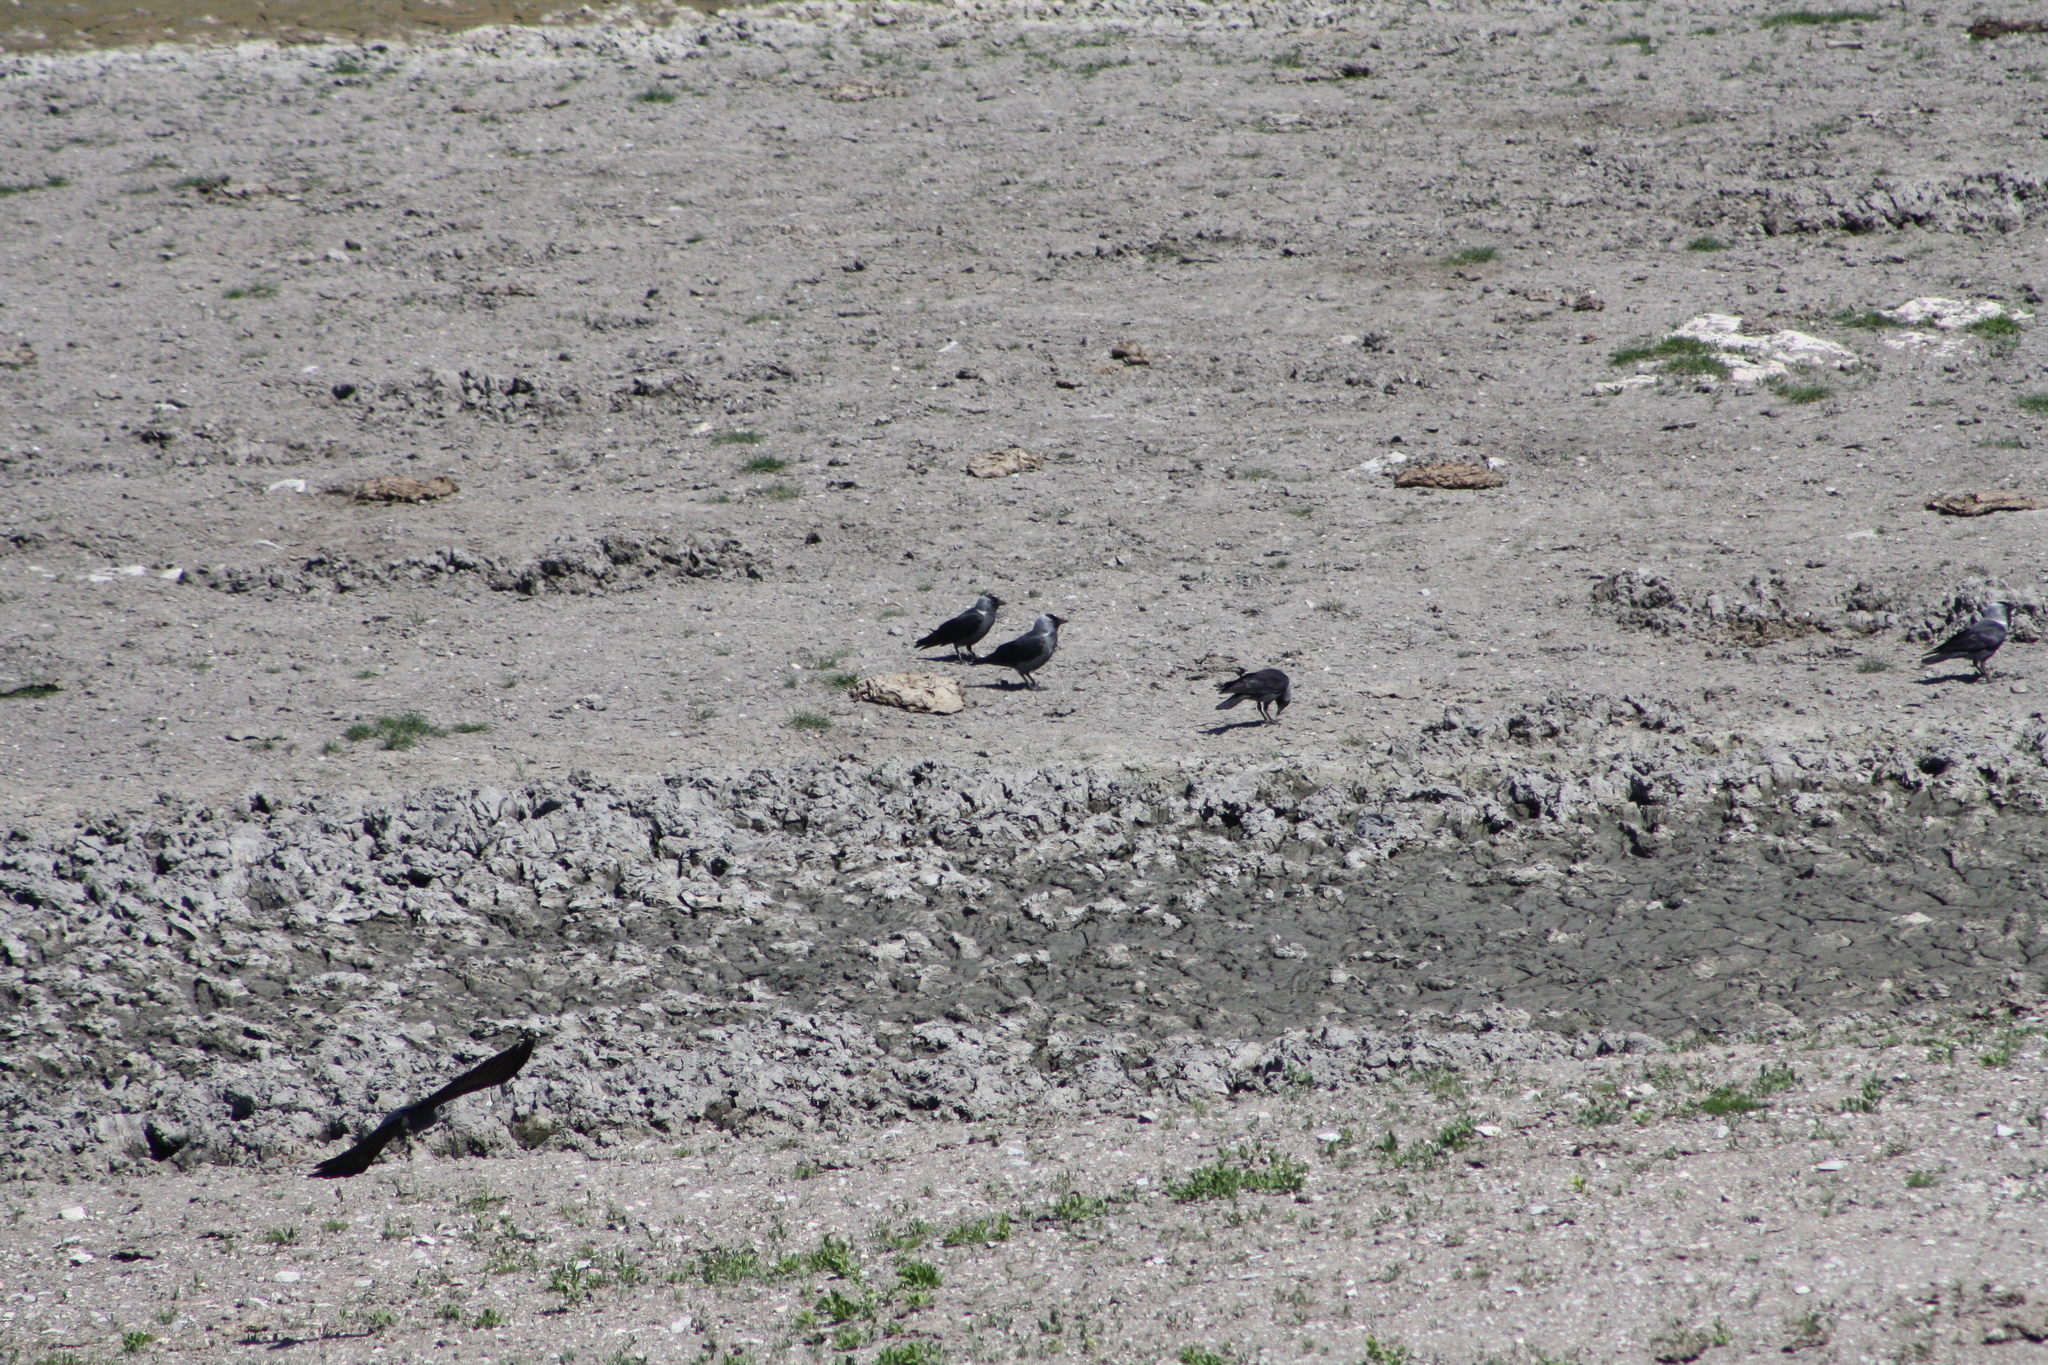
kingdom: Animalia
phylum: Chordata
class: Aves
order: Passeriformes
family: Corvidae
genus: Coloeus
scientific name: Coloeus monedula
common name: Western jackdaw
